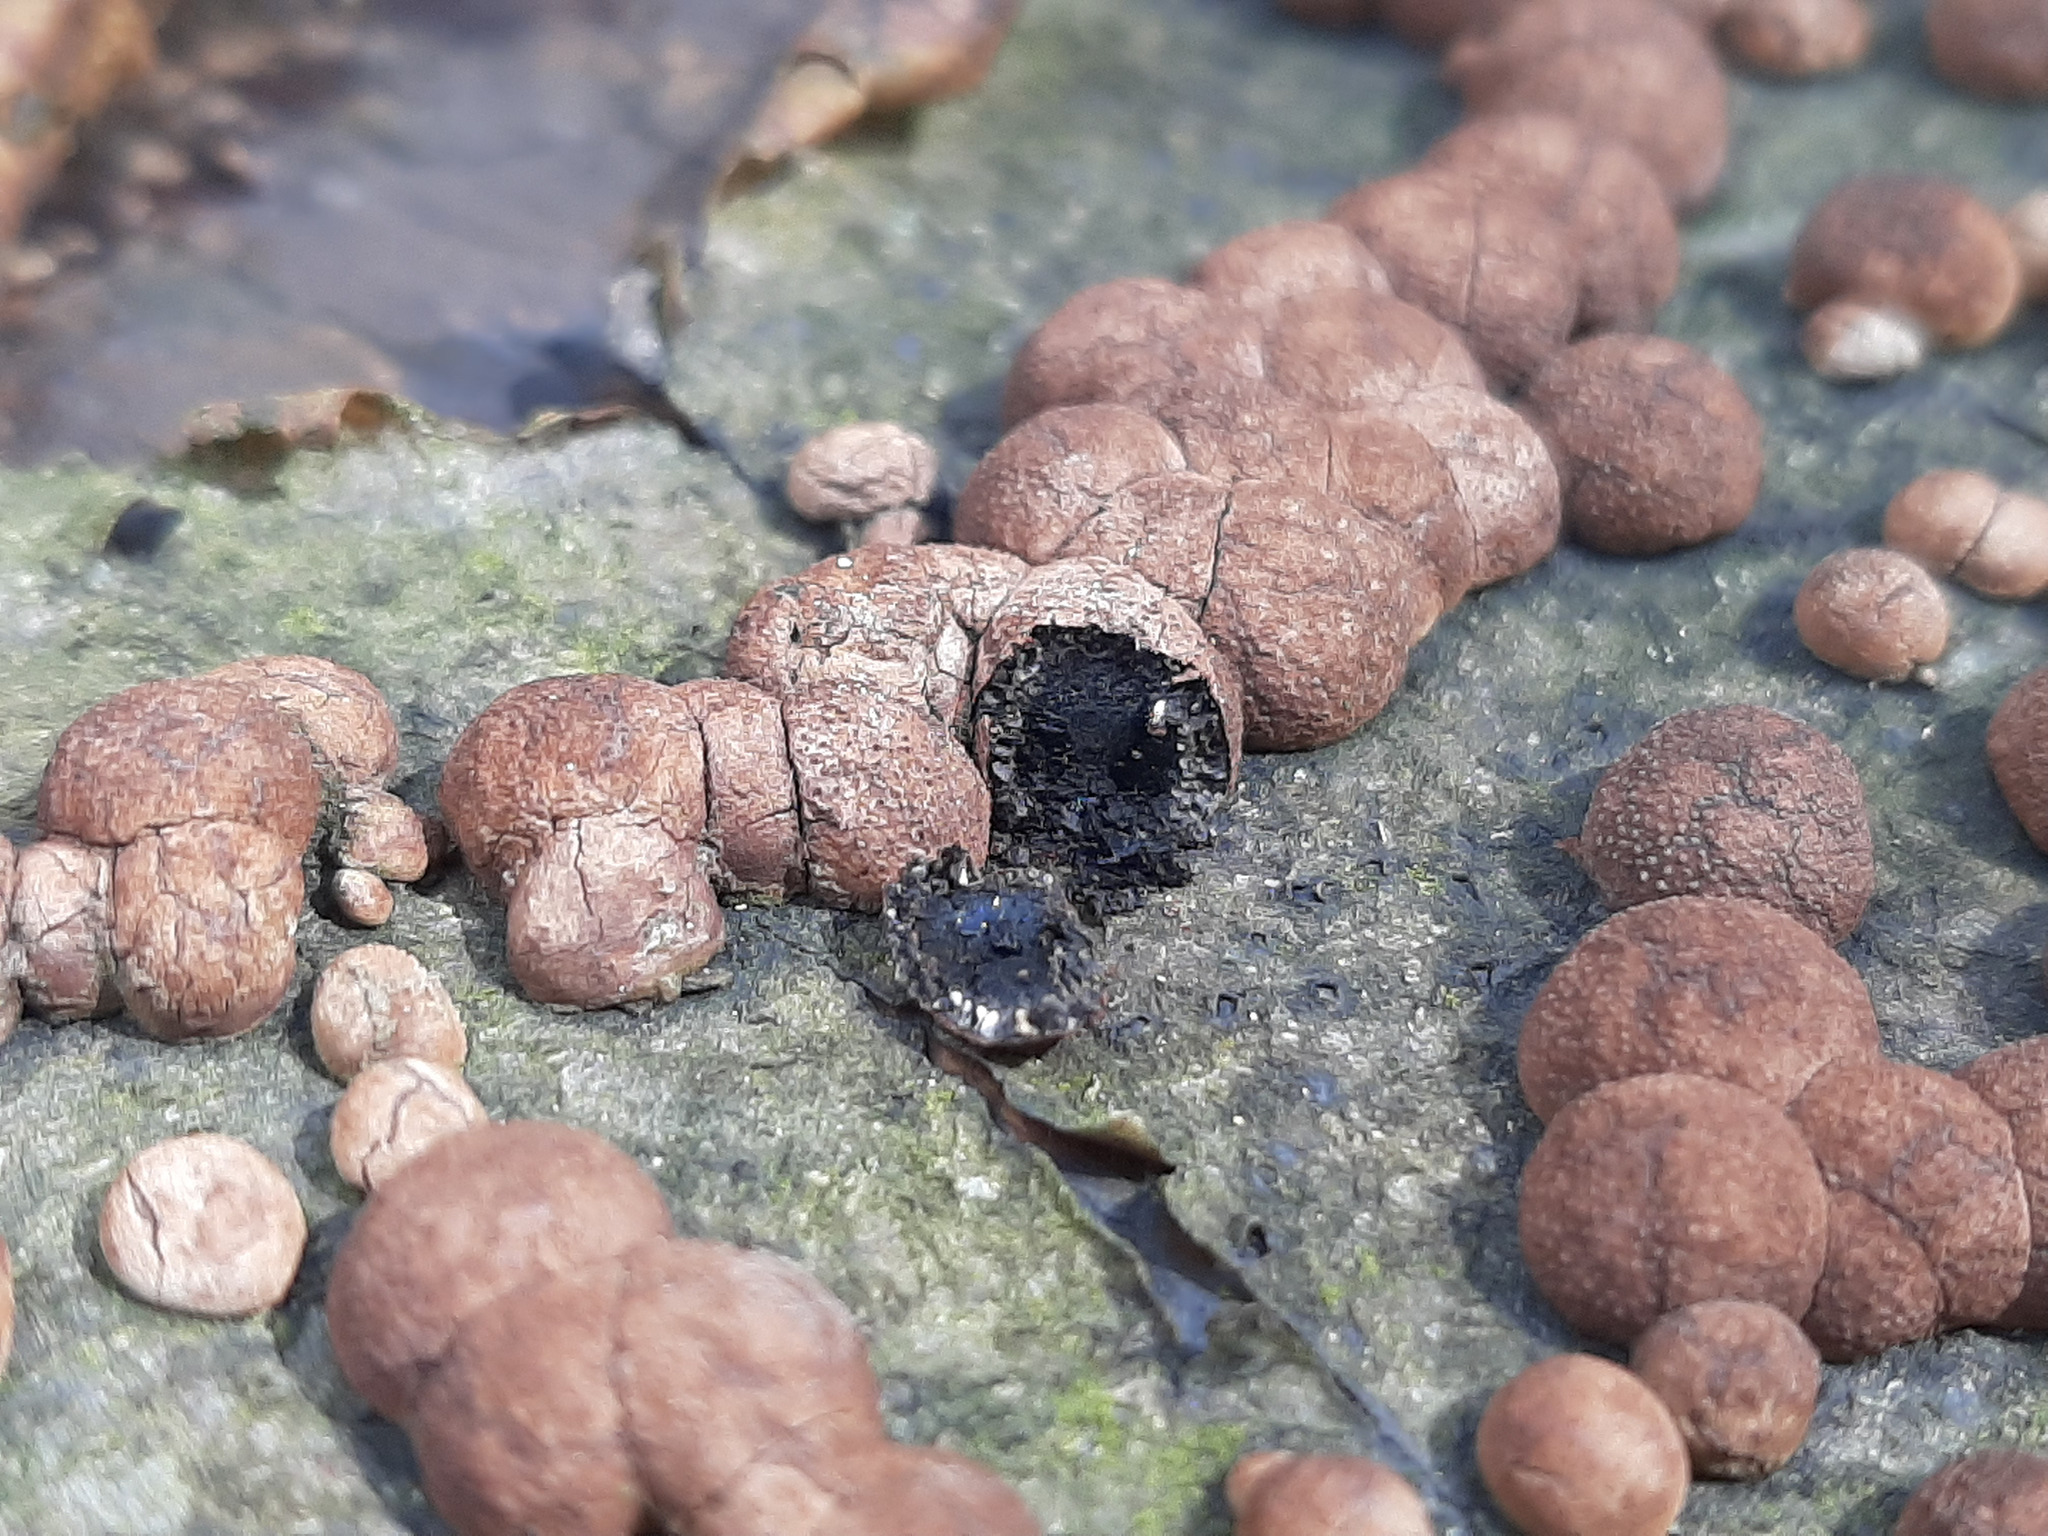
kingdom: Fungi
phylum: Ascomycota
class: Sordariomycetes
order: Xylariales
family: Hypoxylaceae
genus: Hypoxylon
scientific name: Hypoxylon fragiforme
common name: Beech woodwart
